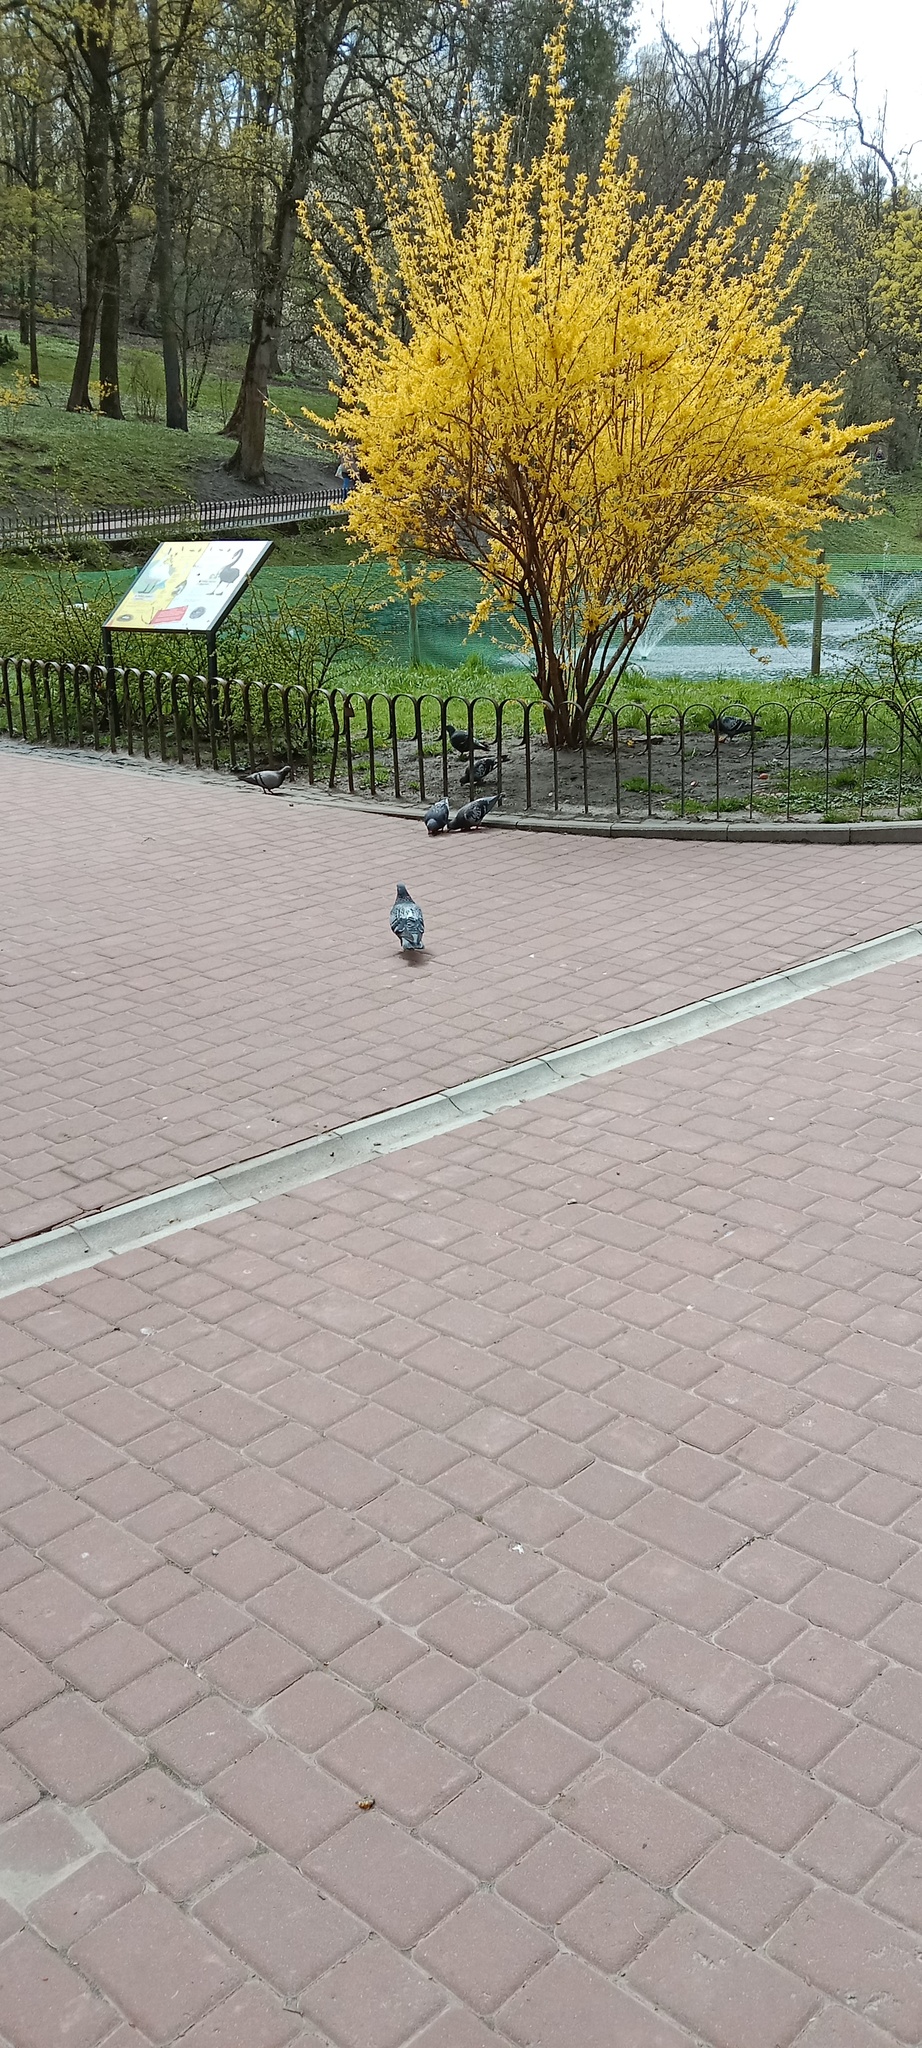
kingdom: Animalia
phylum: Chordata
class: Aves
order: Columbiformes
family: Columbidae
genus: Columba
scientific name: Columba livia
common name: Rock pigeon
